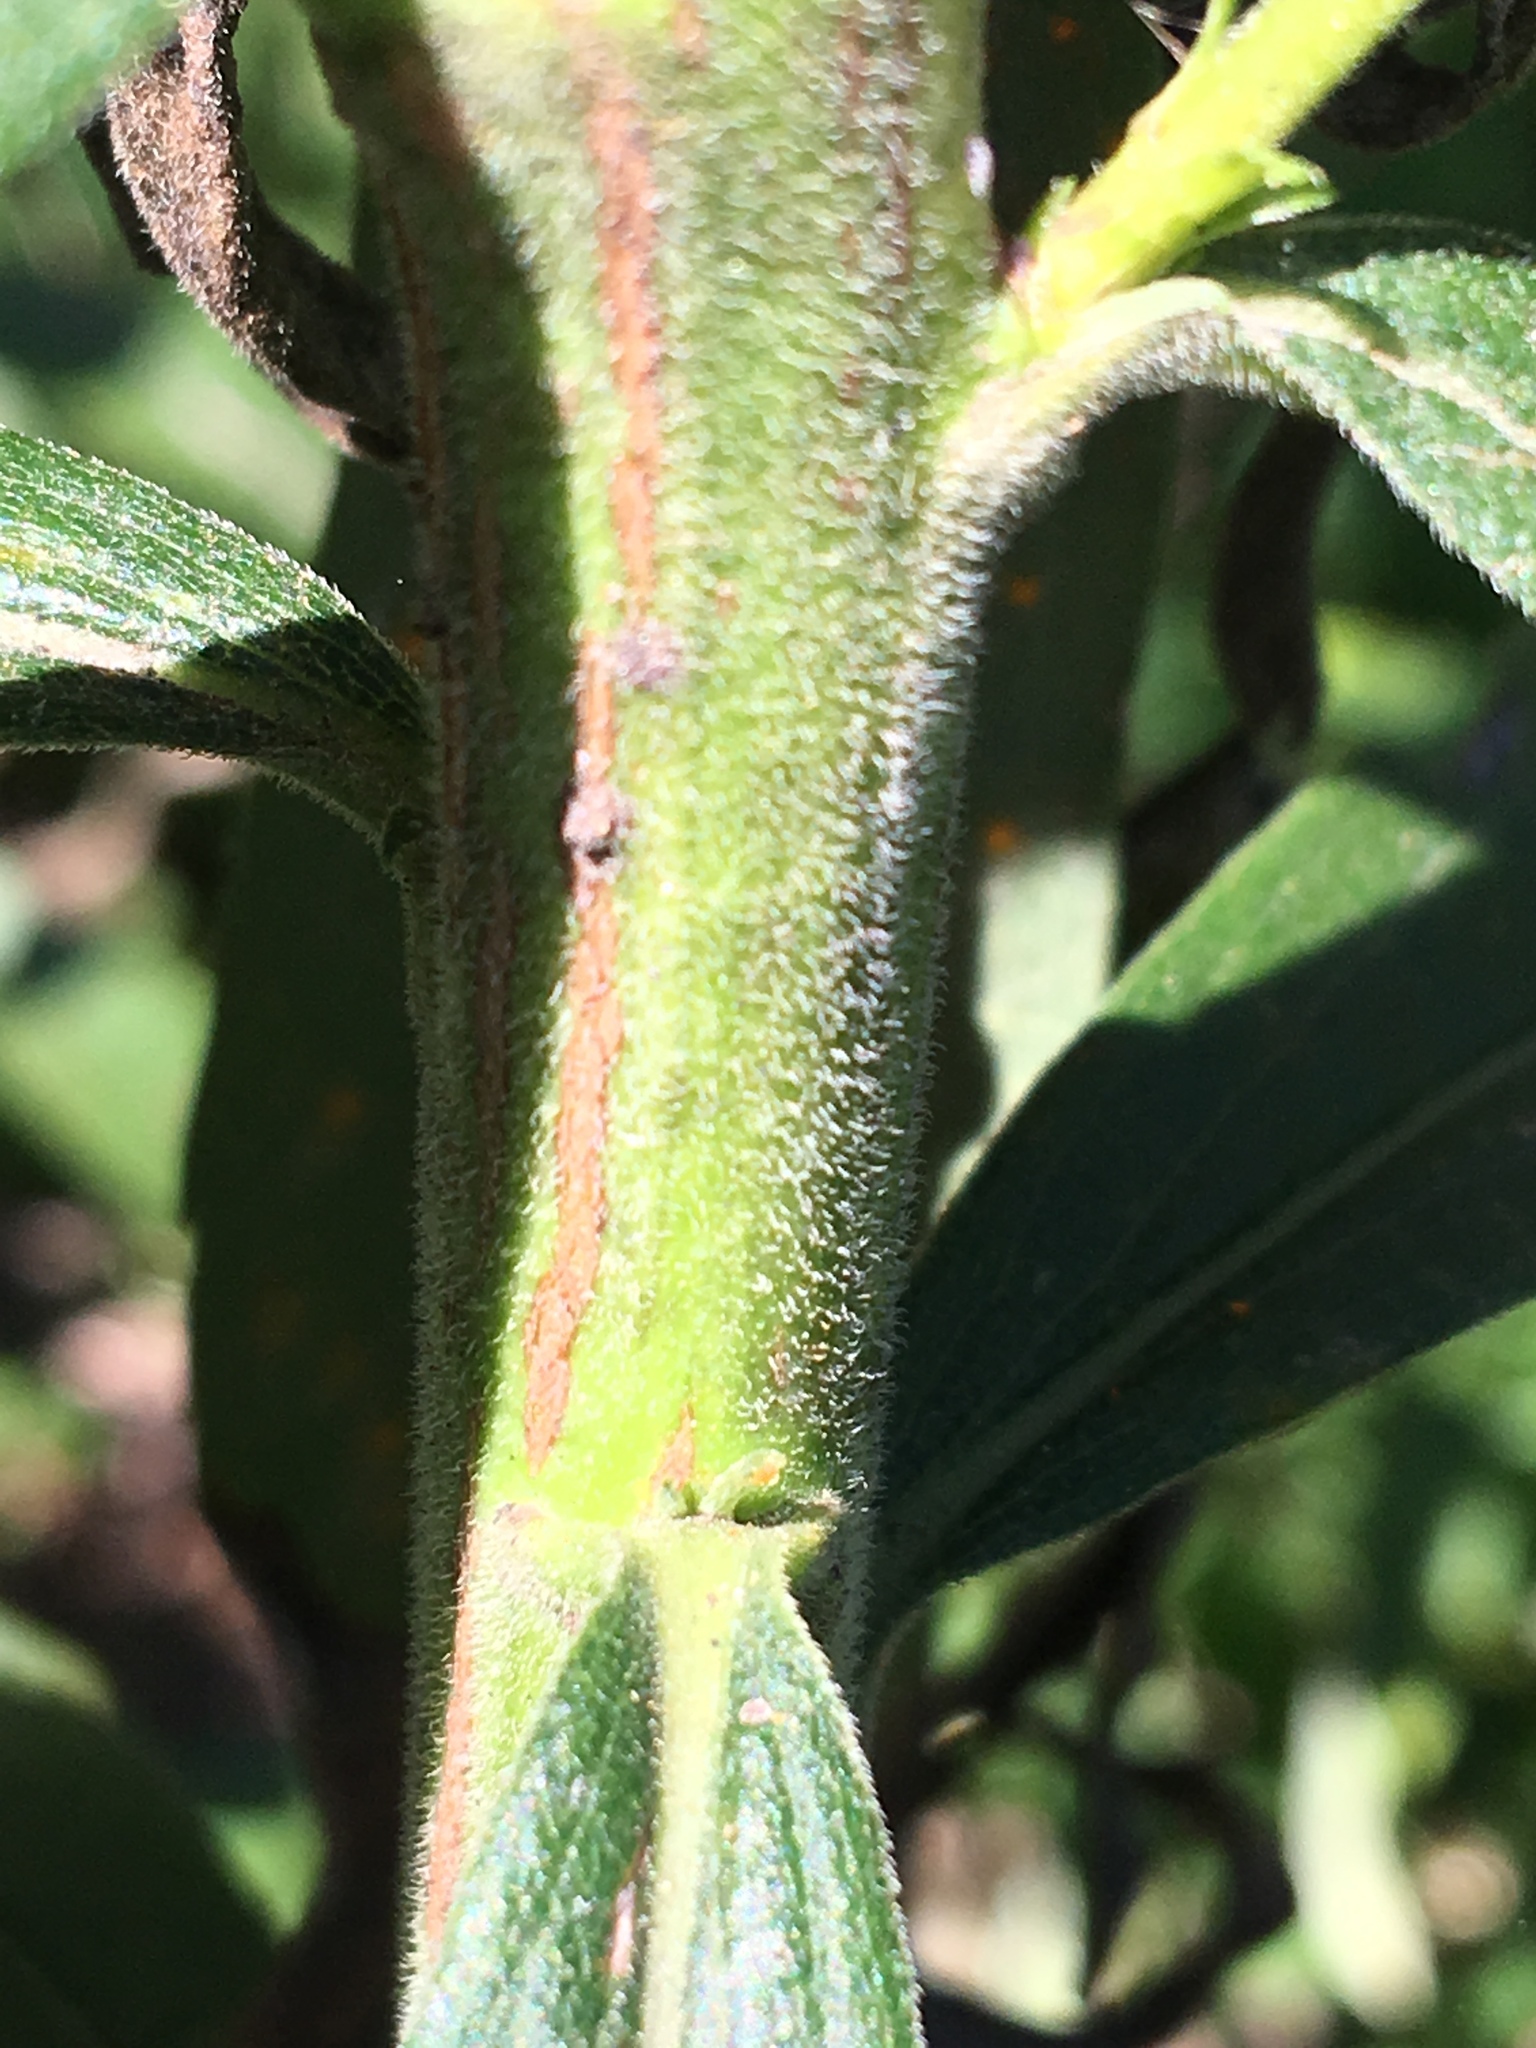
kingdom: Plantae
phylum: Tracheophyta
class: Magnoliopsida
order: Asterales
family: Asteraceae
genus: Solidago
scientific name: Solidago altissima
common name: Late goldenrod
